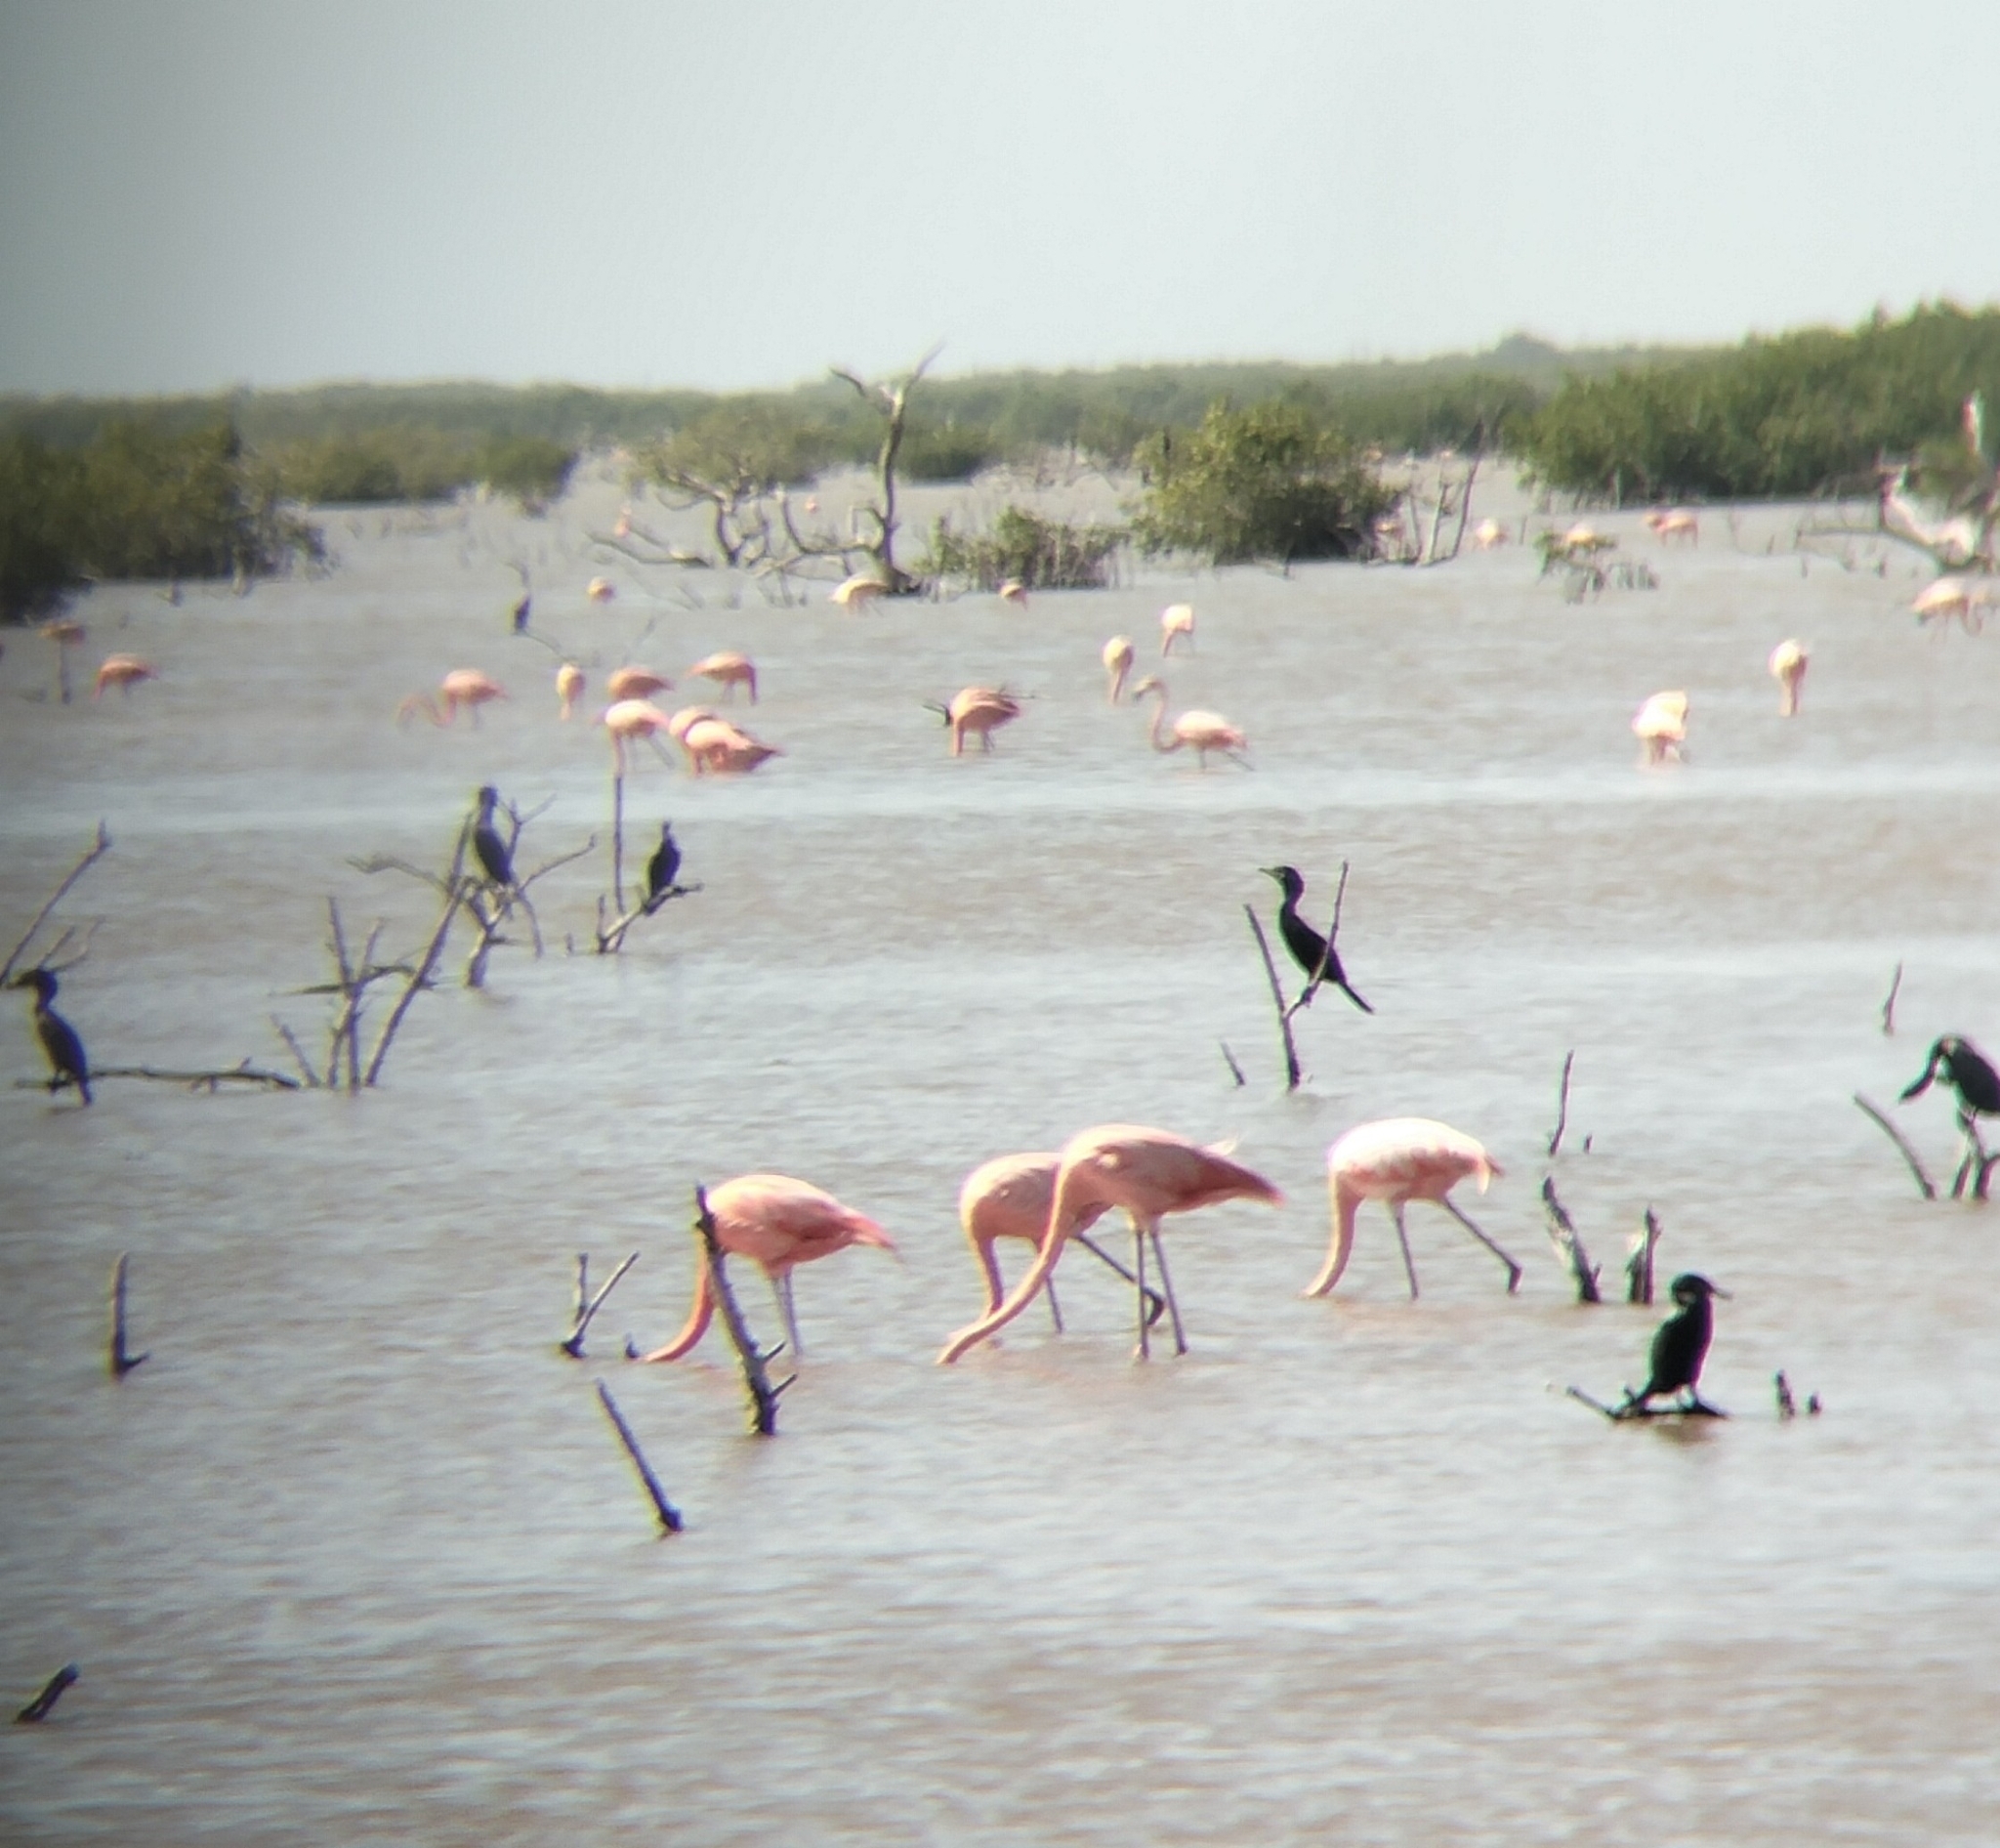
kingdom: Animalia
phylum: Chordata
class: Aves
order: Phoenicopteriformes
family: Phoenicopteridae
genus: Phoenicopterus
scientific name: Phoenicopterus ruber
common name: American flamingo
